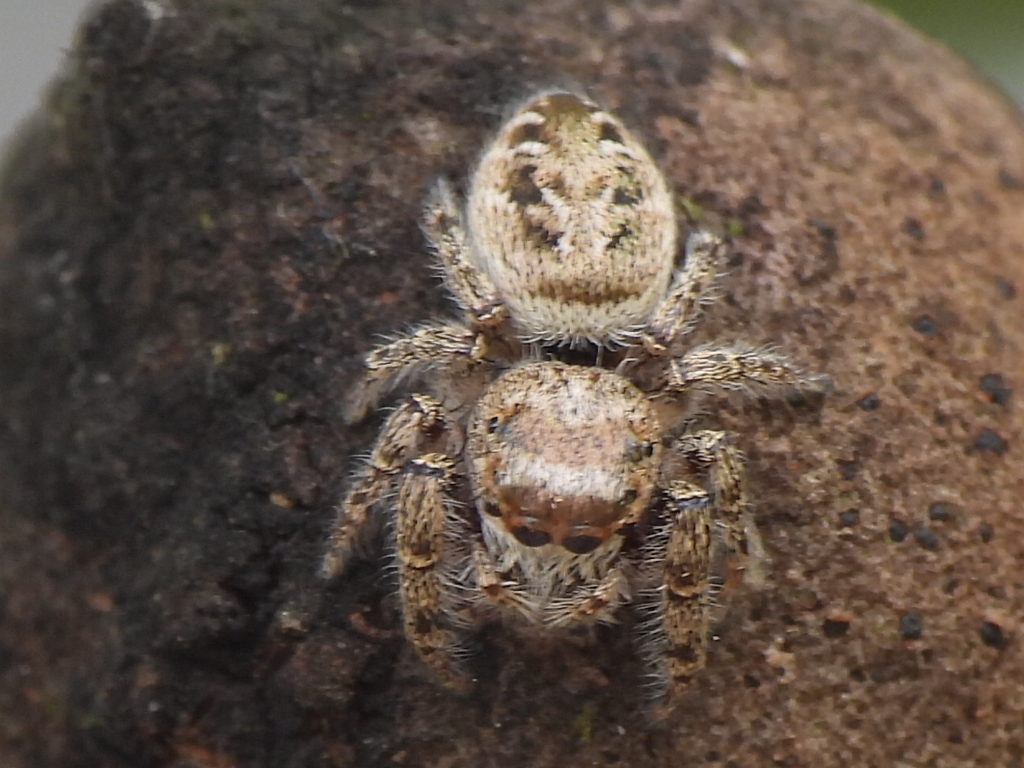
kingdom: Animalia
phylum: Arthropoda
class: Arachnida
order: Araneae
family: Salticidae
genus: Eris
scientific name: Eris militaris
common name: Bronze jumper
